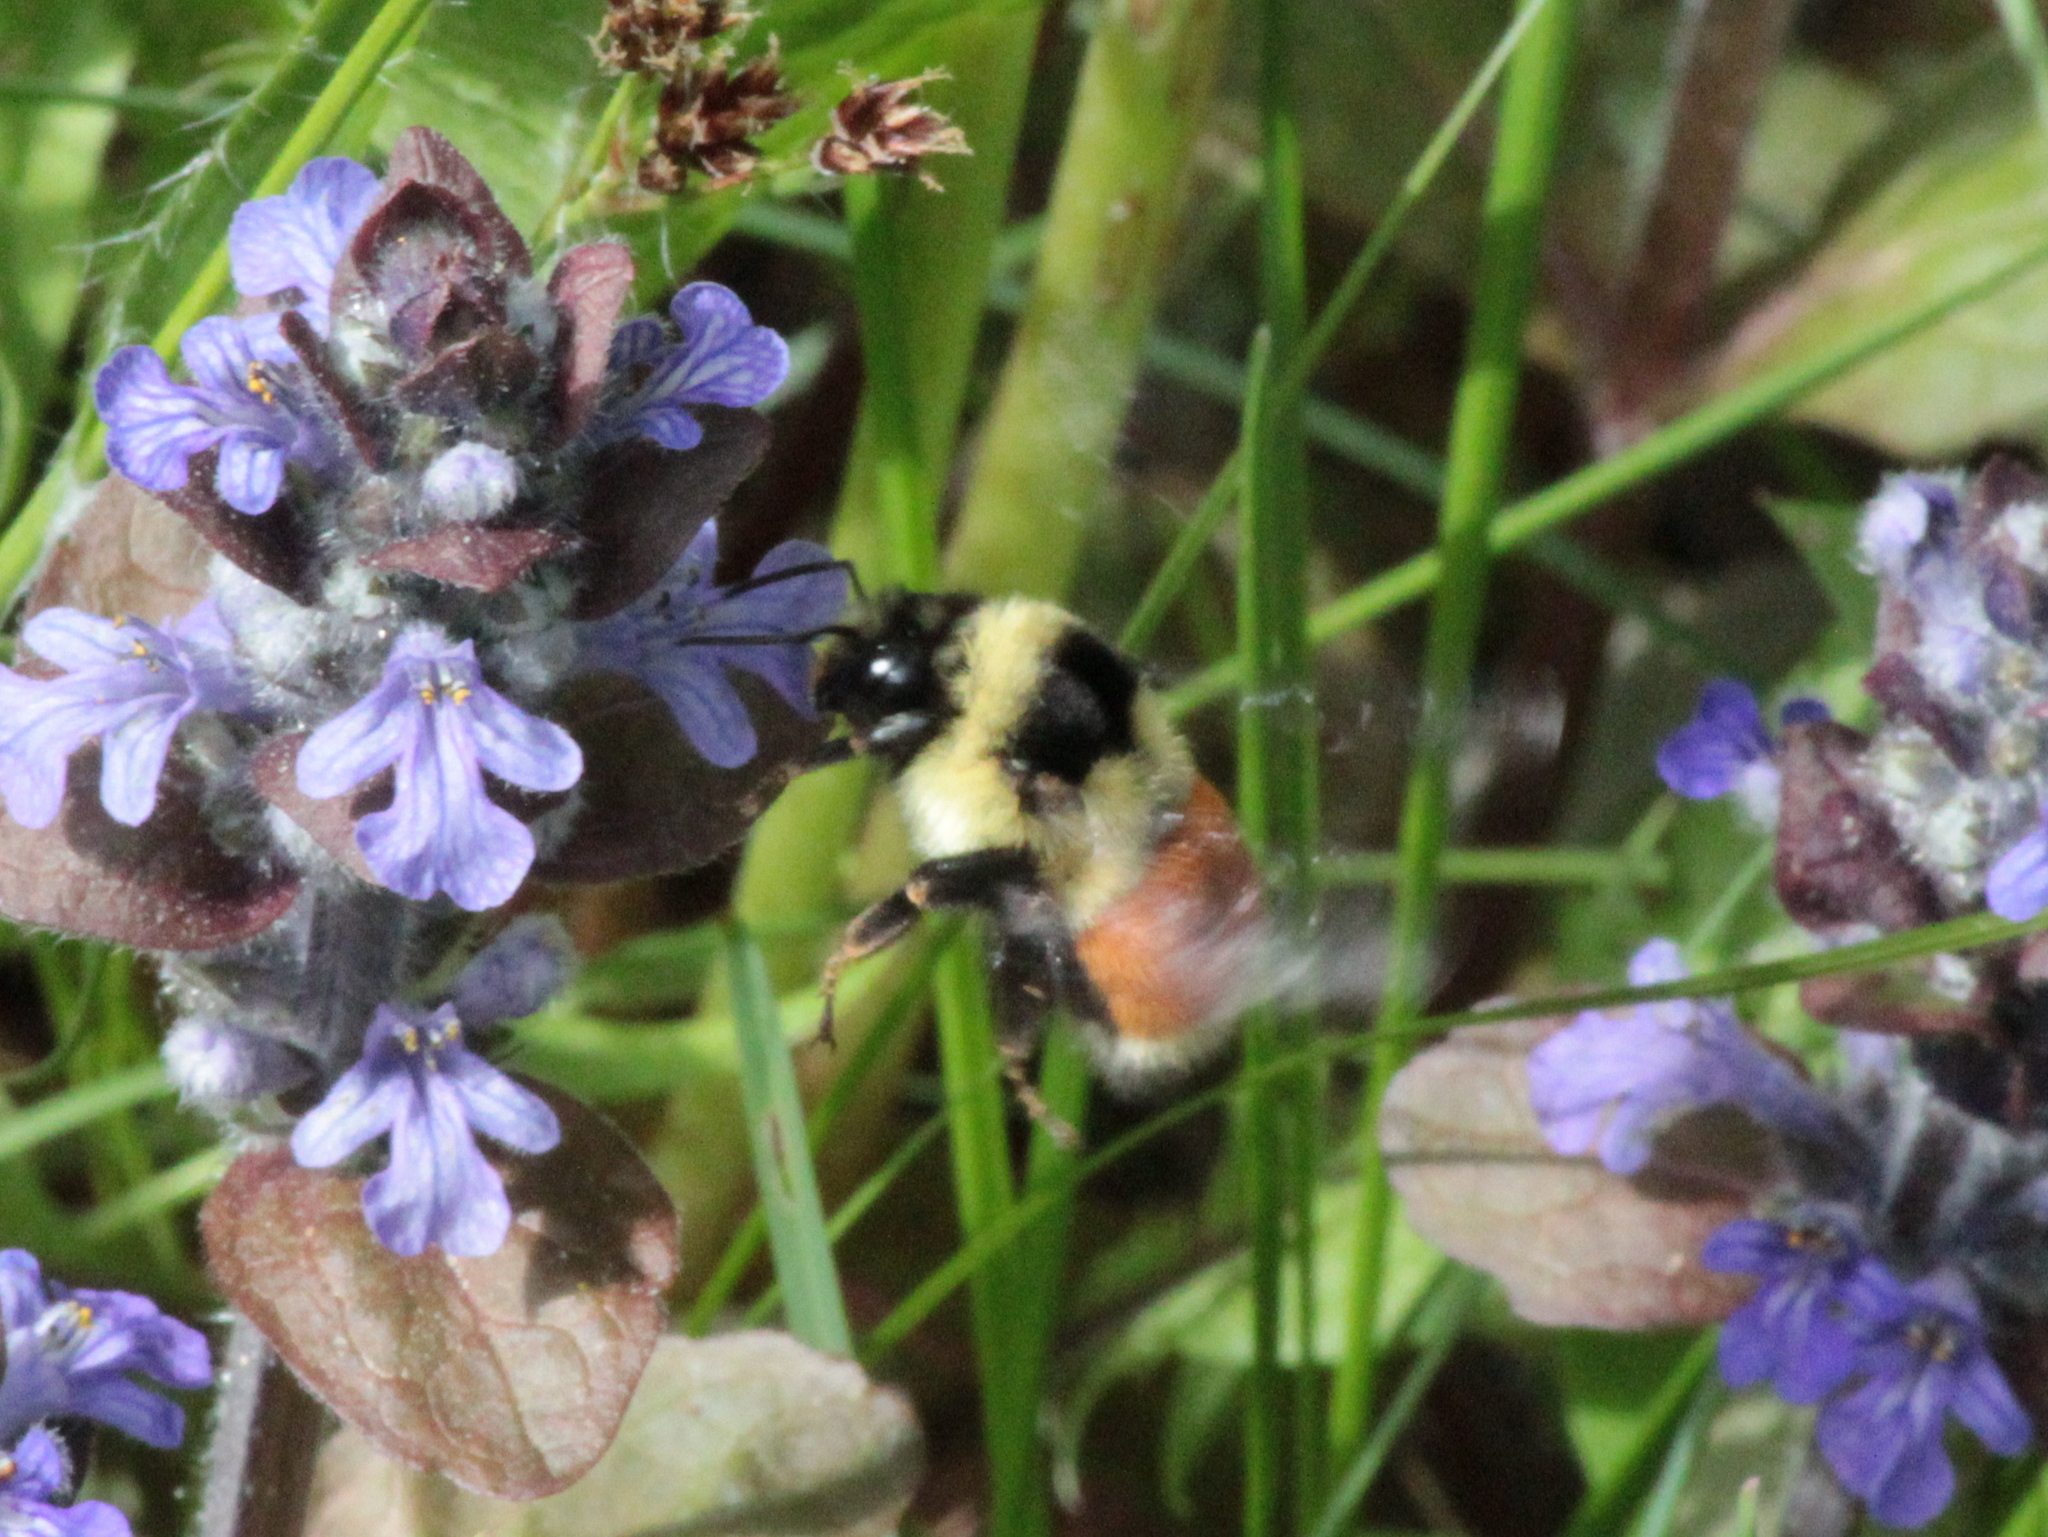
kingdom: Animalia
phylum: Arthropoda
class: Insecta
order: Hymenoptera
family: Apidae
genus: Bombus
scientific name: Bombus ternarius
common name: Tri-colored bumble bee
